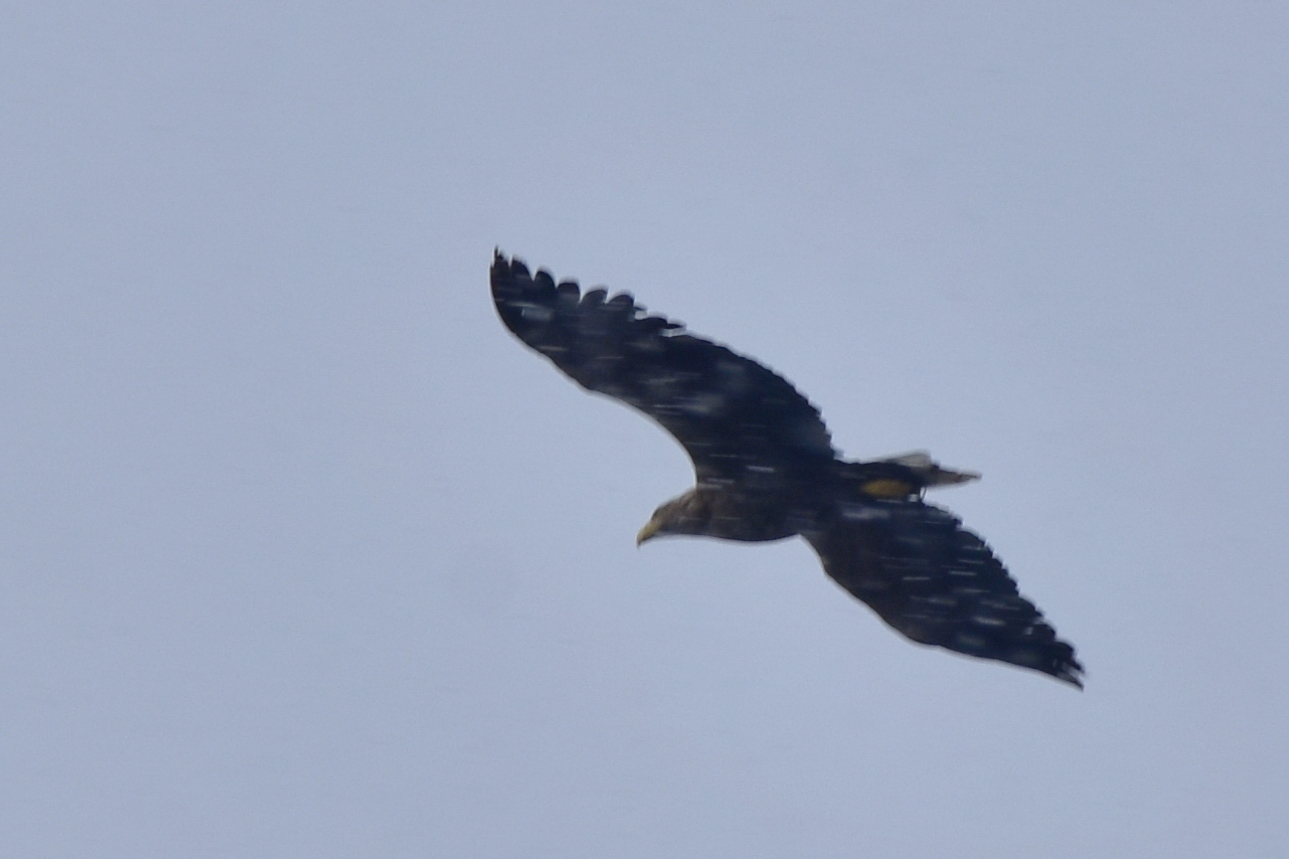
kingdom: Animalia
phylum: Chordata
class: Aves
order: Accipitriformes
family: Accipitridae
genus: Haliaeetus
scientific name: Haliaeetus albicilla
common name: White-tailed eagle
